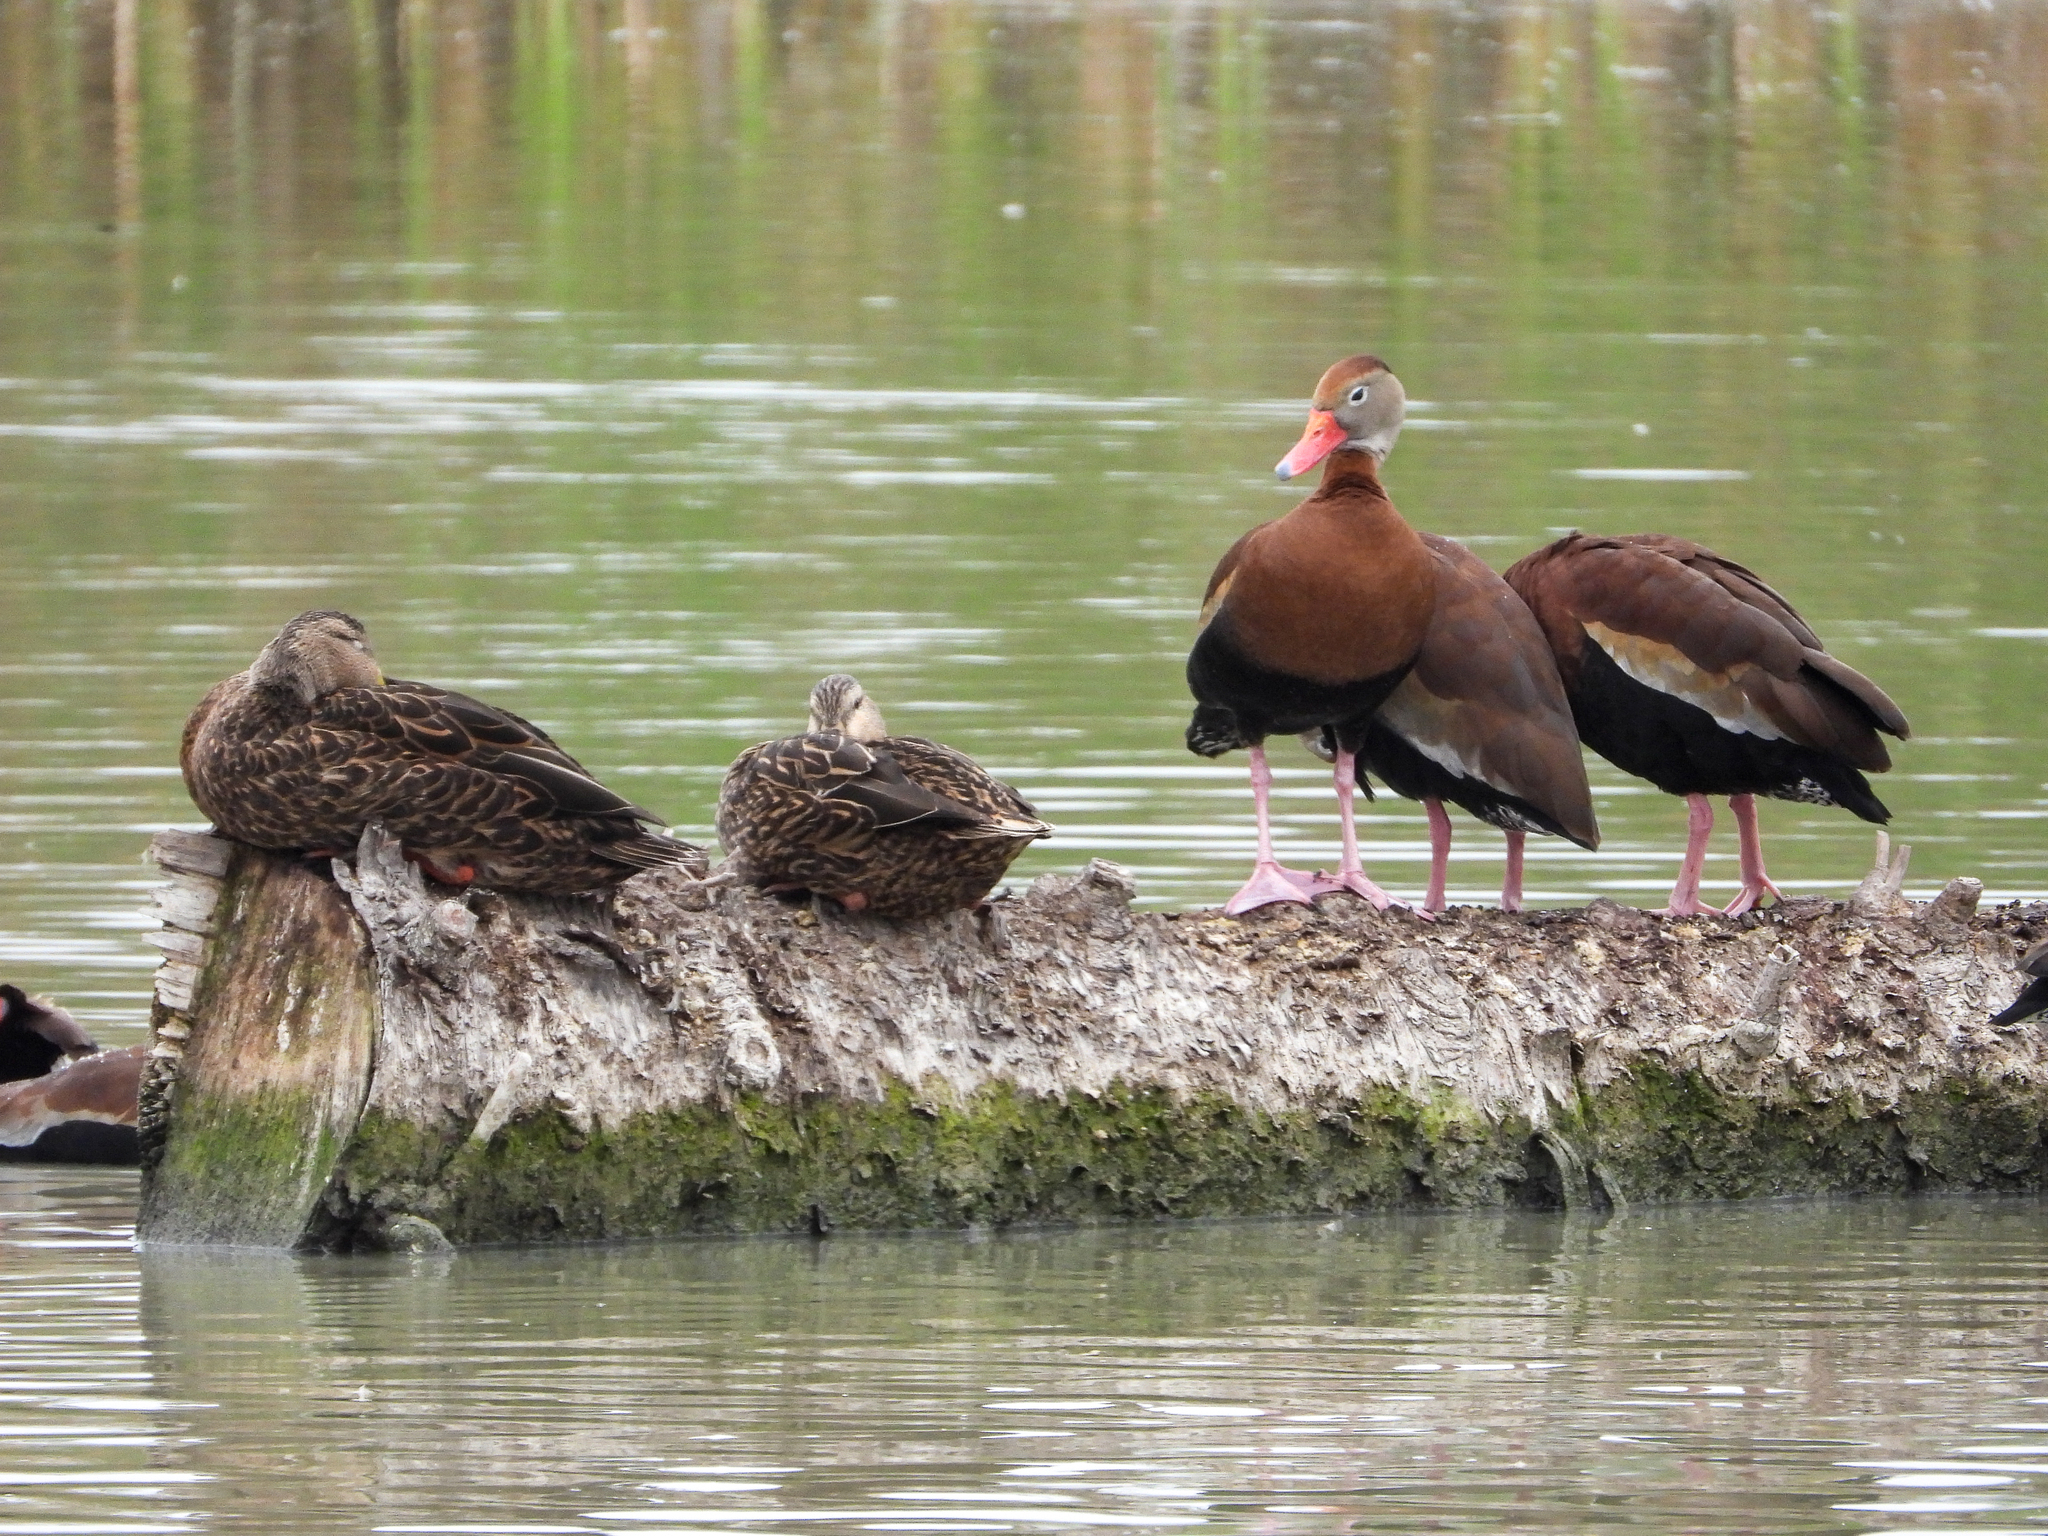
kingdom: Animalia
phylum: Chordata
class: Aves
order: Anseriformes
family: Anatidae
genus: Dendrocygna
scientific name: Dendrocygna autumnalis
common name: Black-bellied whistling duck
